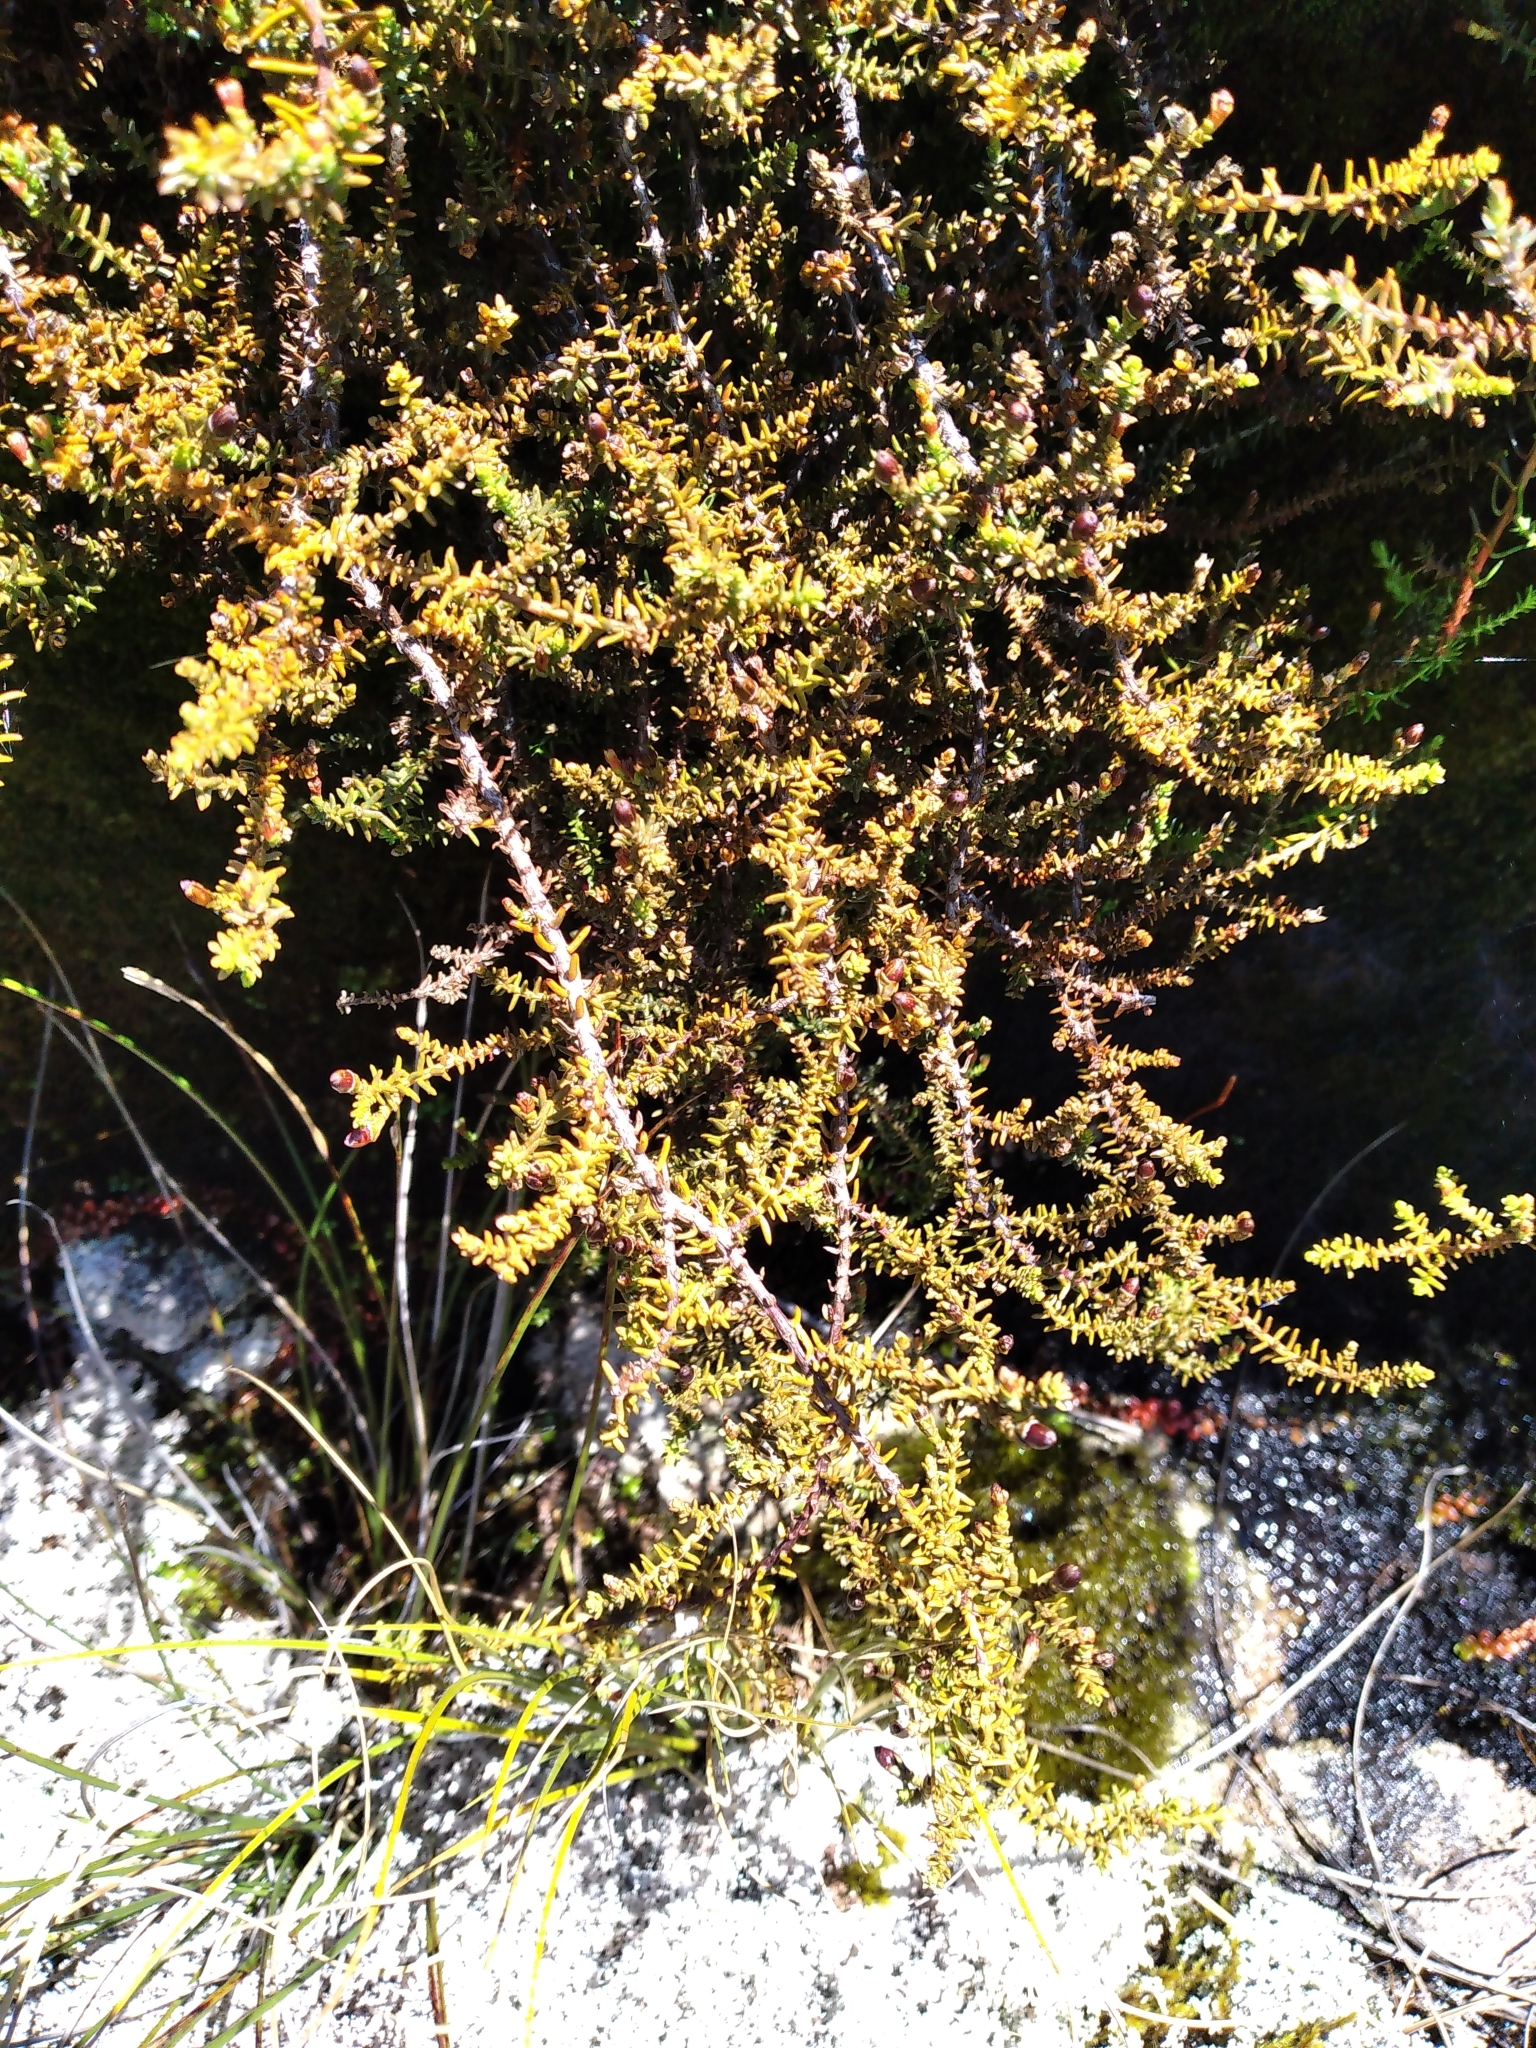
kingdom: Plantae
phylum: Tracheophyta
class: Pinopsida
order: Pinales
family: Podocarpaceae
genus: Lepidothamnus
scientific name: Lepidothamnus laxifolius
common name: Pygmy pine
